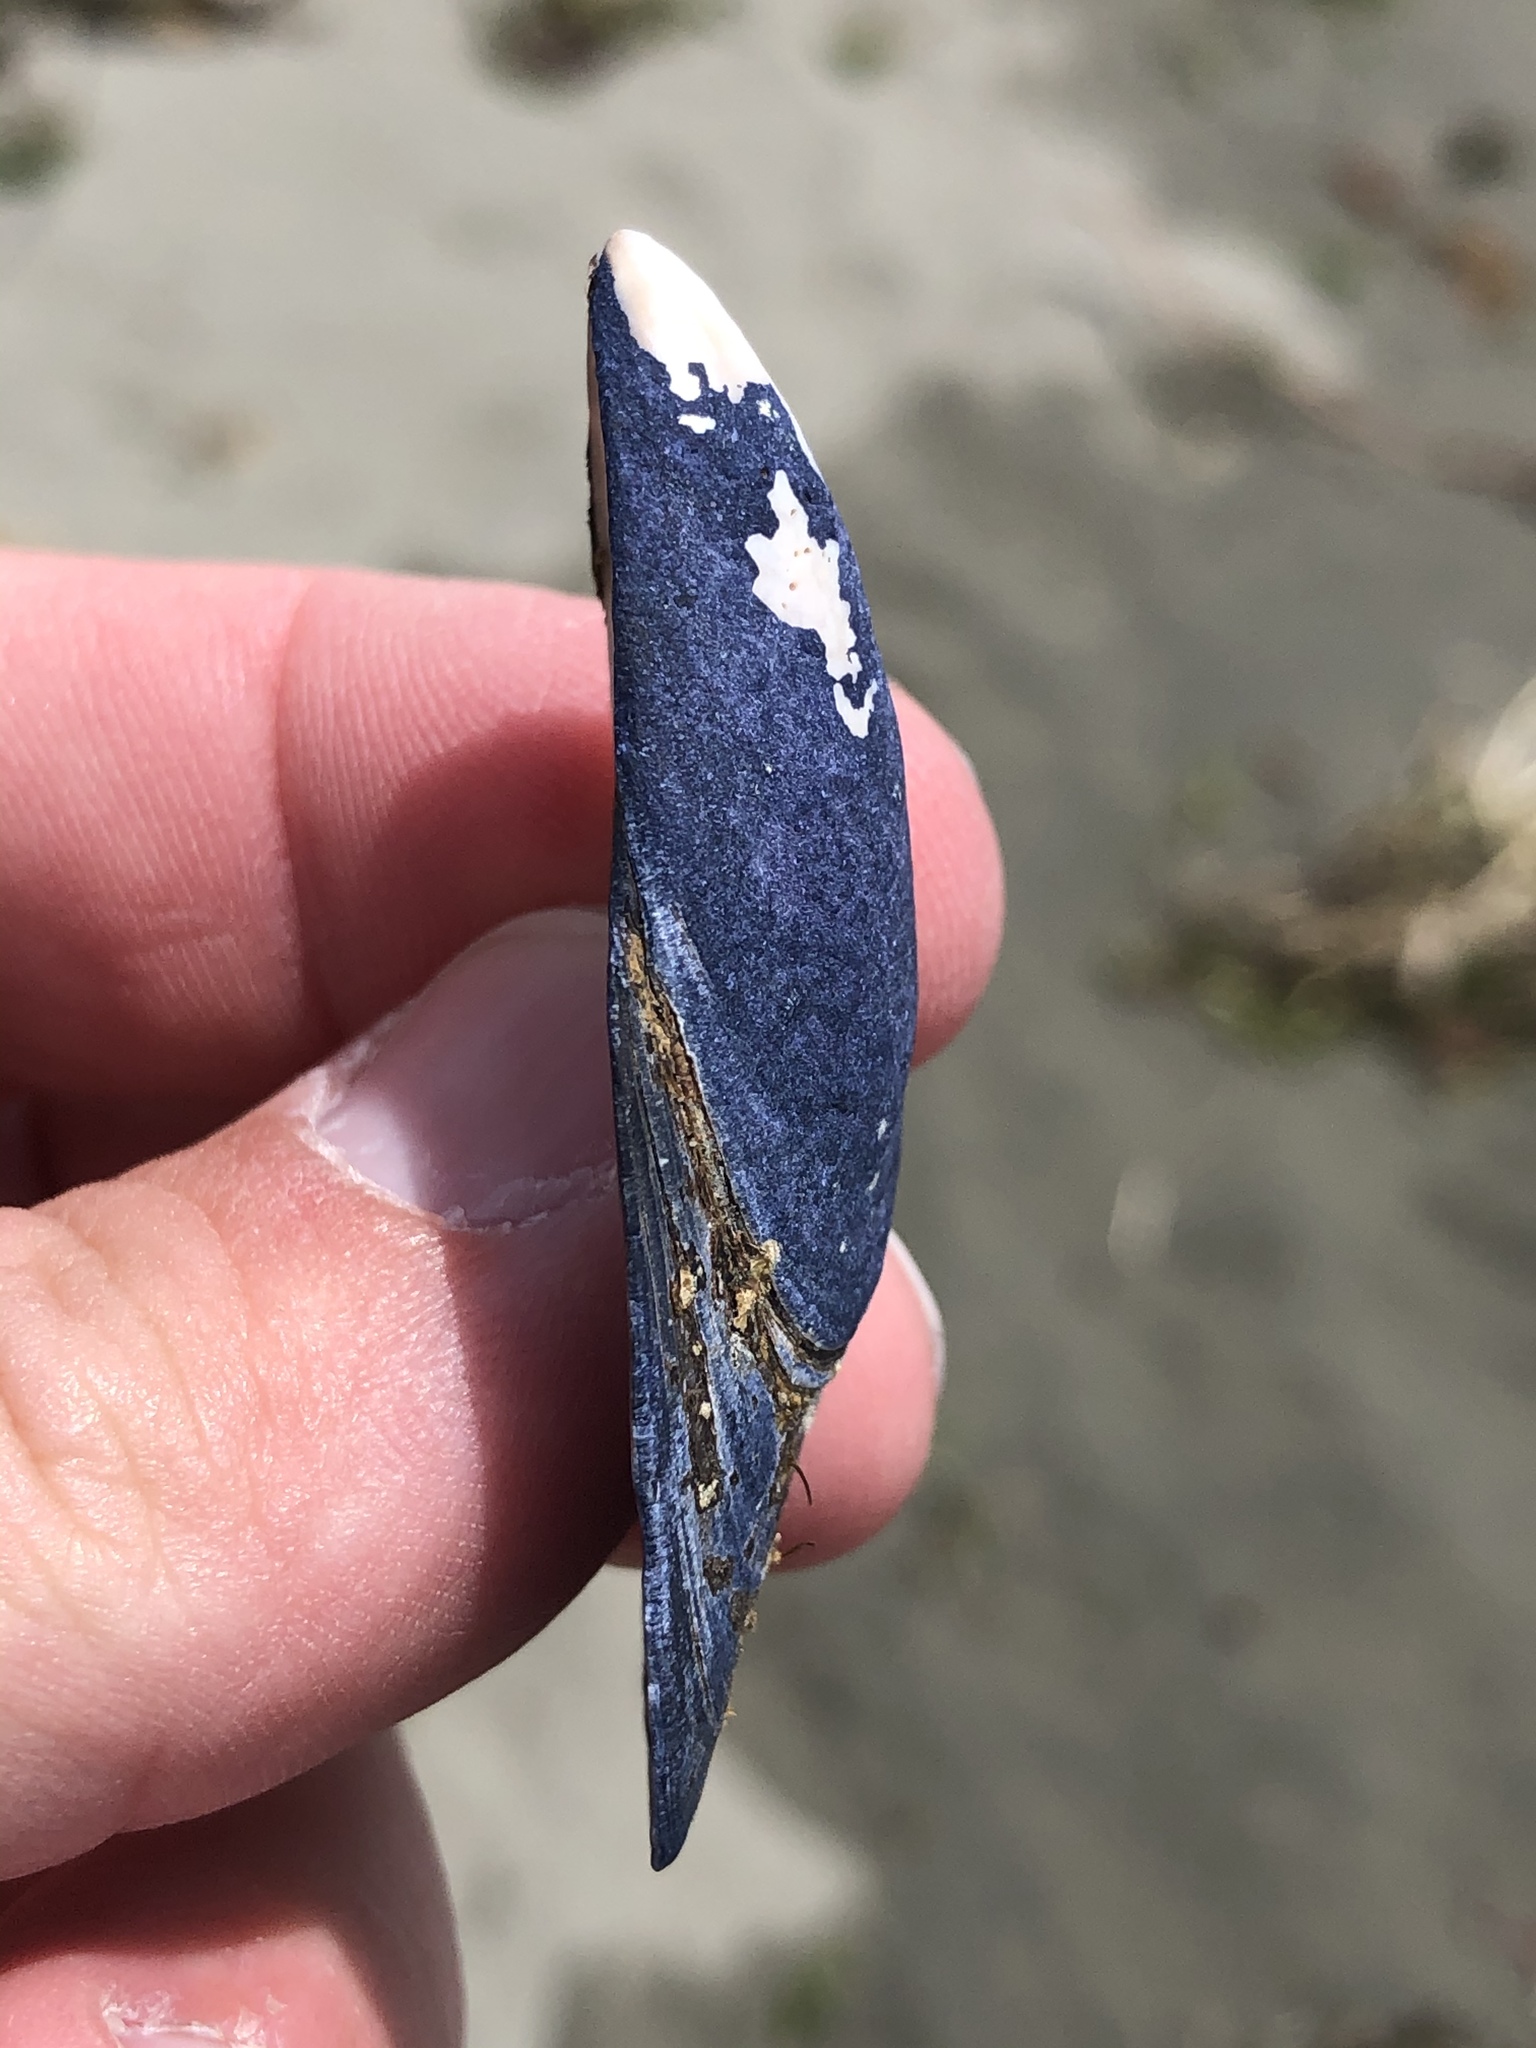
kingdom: Animalia
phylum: Mollusca
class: Bivalvia
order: Mytilida
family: Mytilidae
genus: Mytilus
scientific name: Mytilus planulatus
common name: Australian mussel
